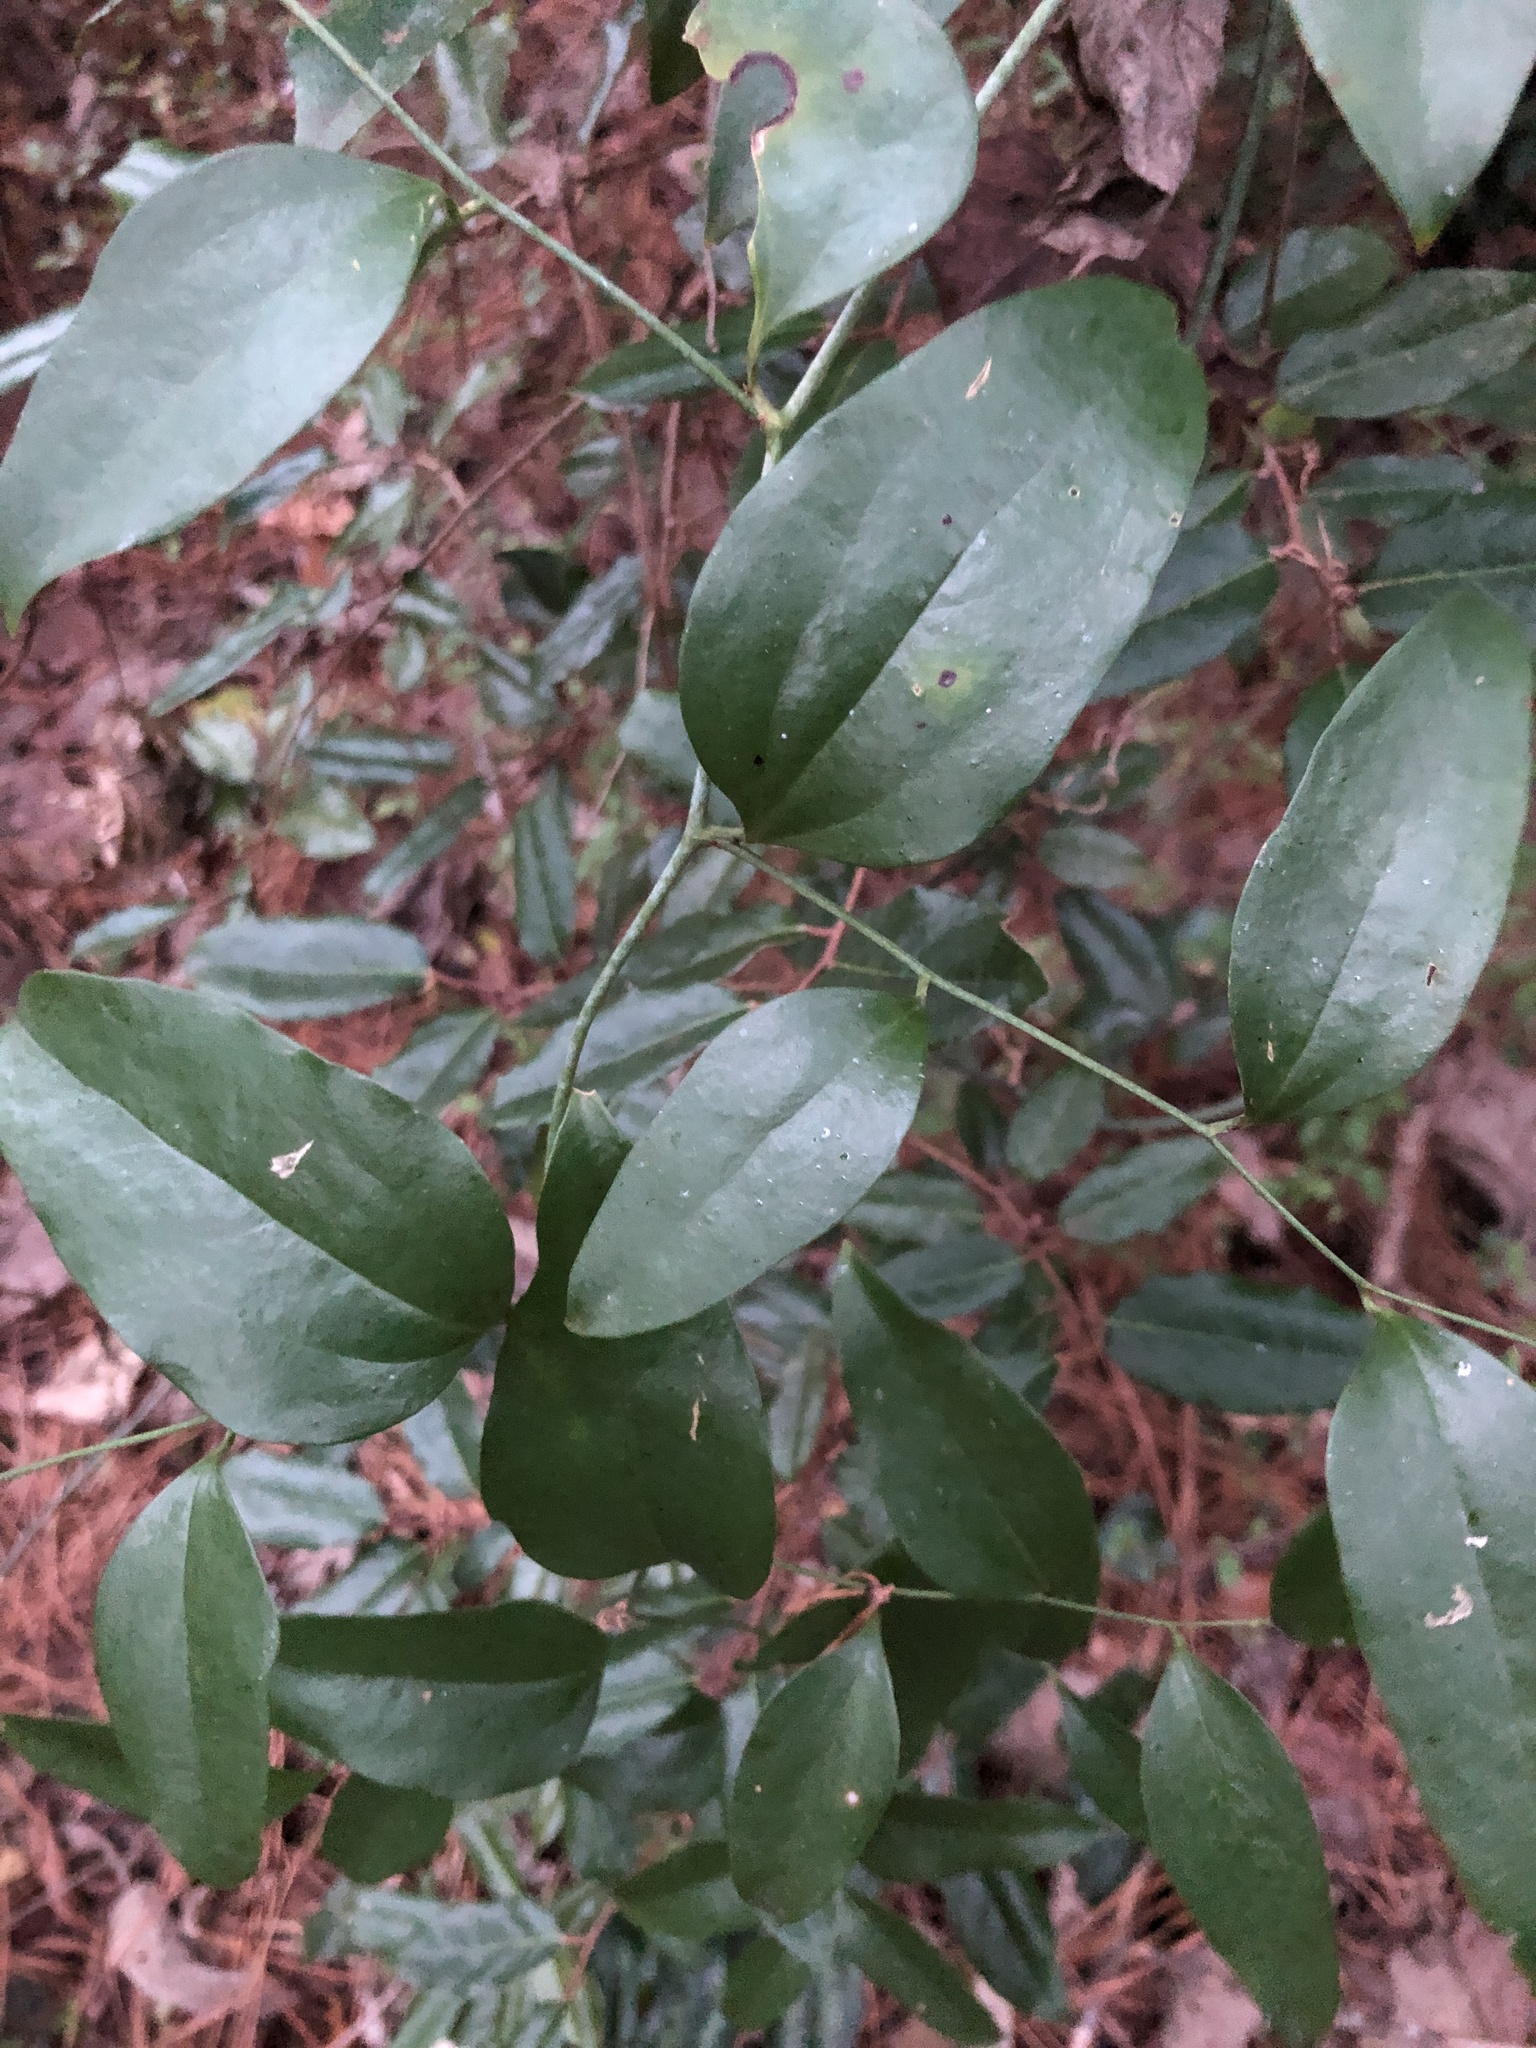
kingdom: Plantae
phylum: Tracheophyta
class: Liliopsida
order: Liliales
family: Smilacaceae
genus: Smilax
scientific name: Smilax maritima
